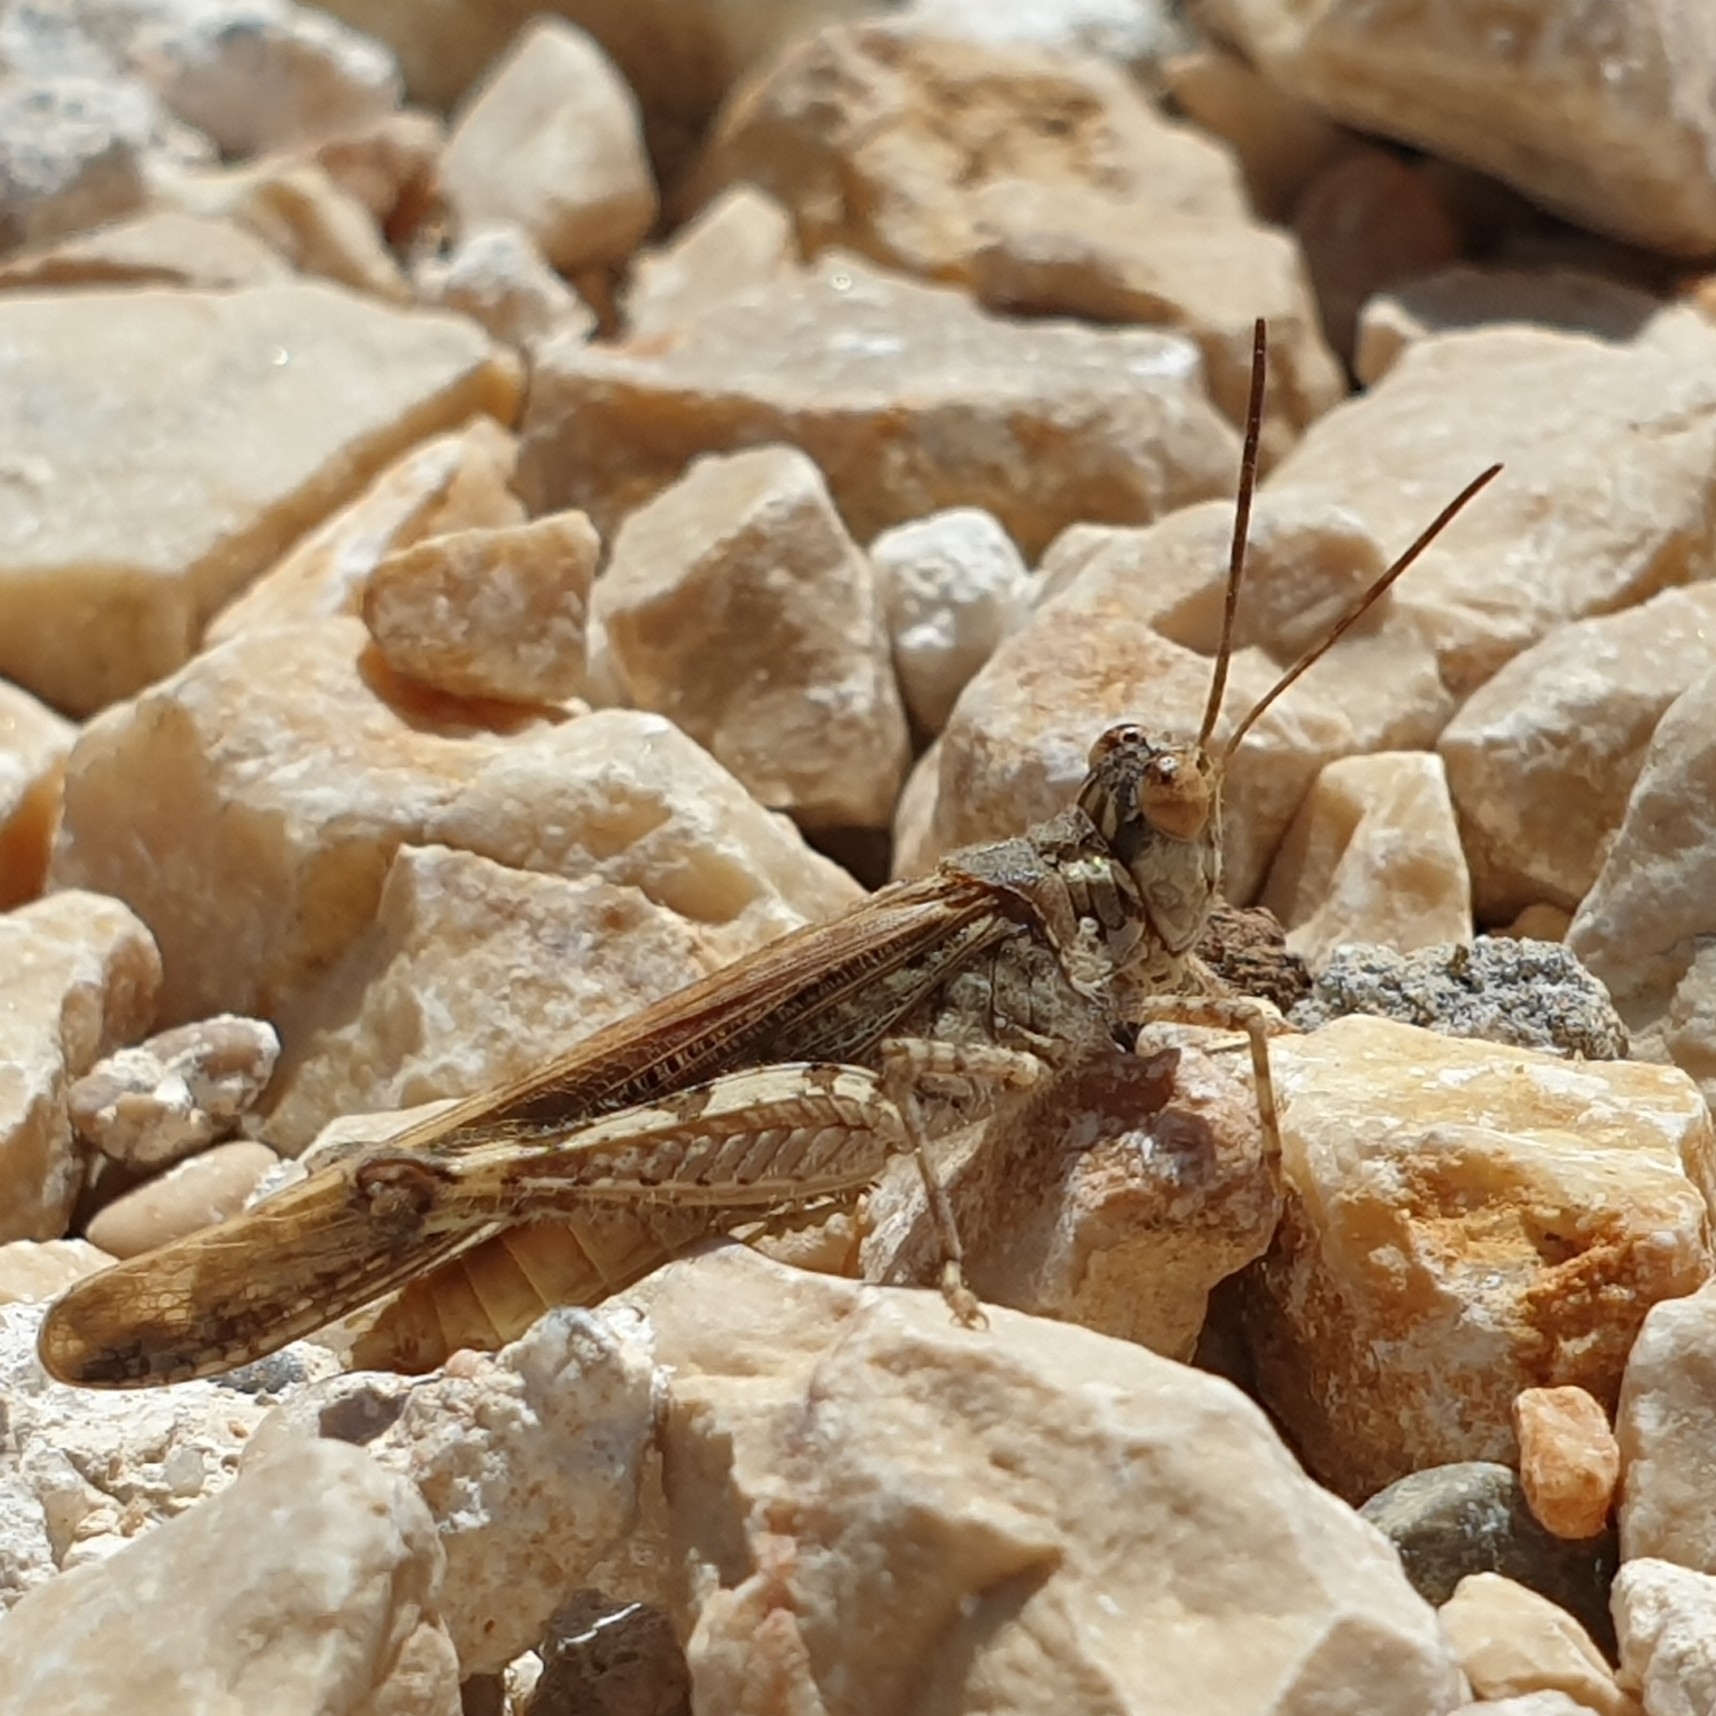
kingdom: Animalia
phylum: Arthropoda
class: Insecta
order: Orthoptera
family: Acrididae
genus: Acrotylus
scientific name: Acrotylus patruelis
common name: Slender burrowing grasshopper
